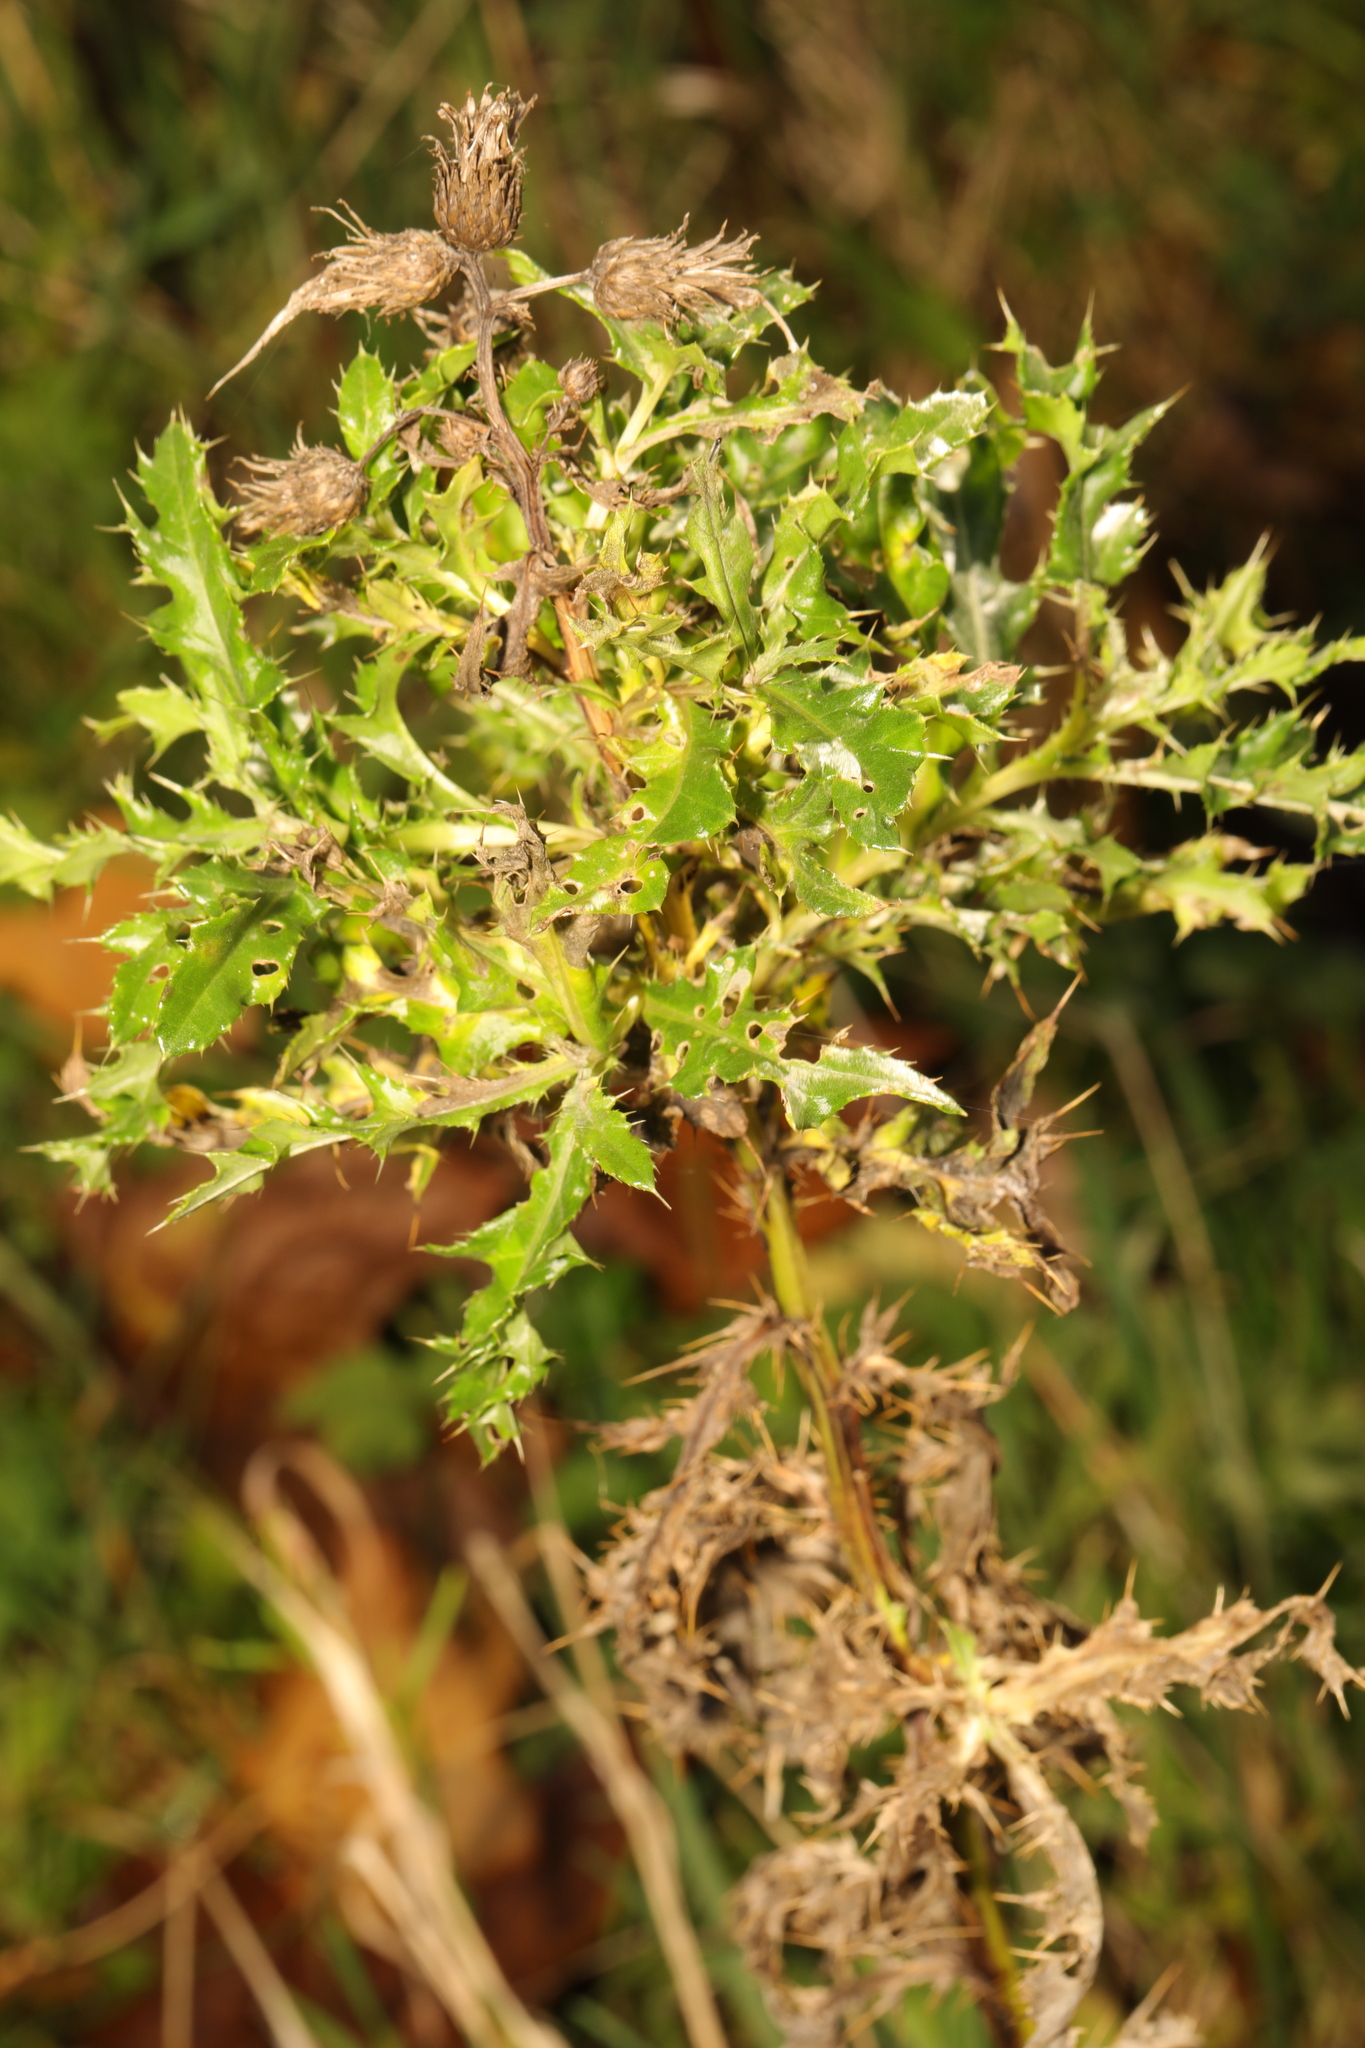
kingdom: Plantae
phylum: Tracheophyta
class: Magnoliopsida
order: Asterales
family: Asteraceae
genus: Cirsium
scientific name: Cirsium arvense
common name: Creeping thistle
